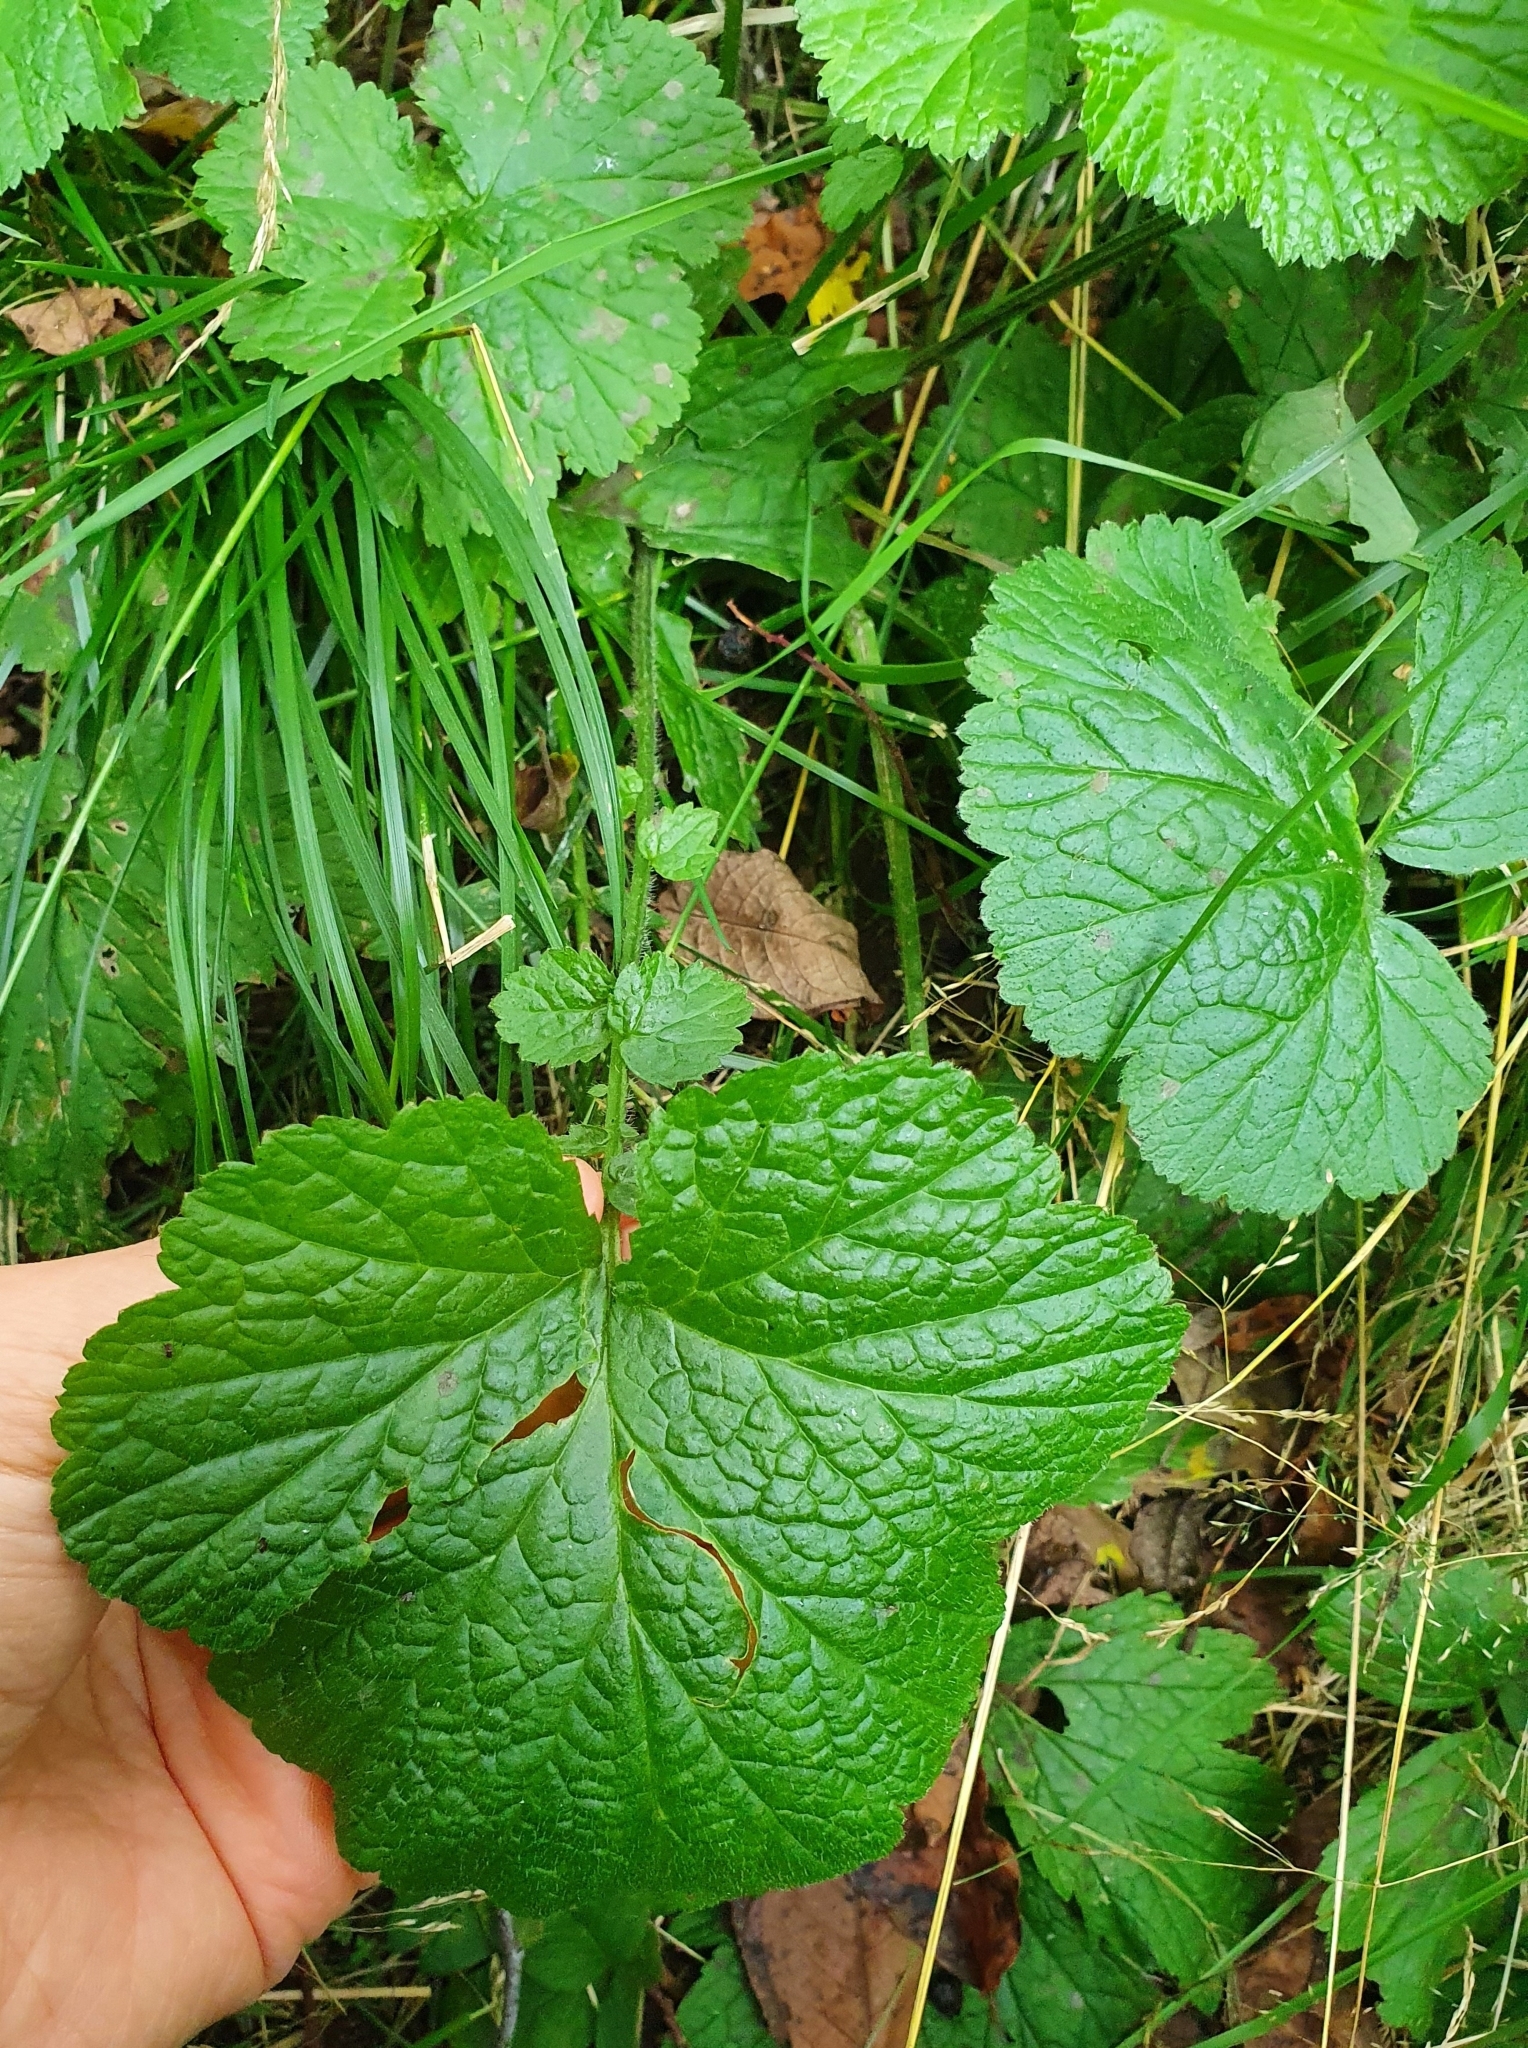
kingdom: Plantae
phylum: Tracheophyta
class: Magnoliopsida
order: Rosales
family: Rosaceae
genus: Geum
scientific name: Geum rivale
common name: Water avens
